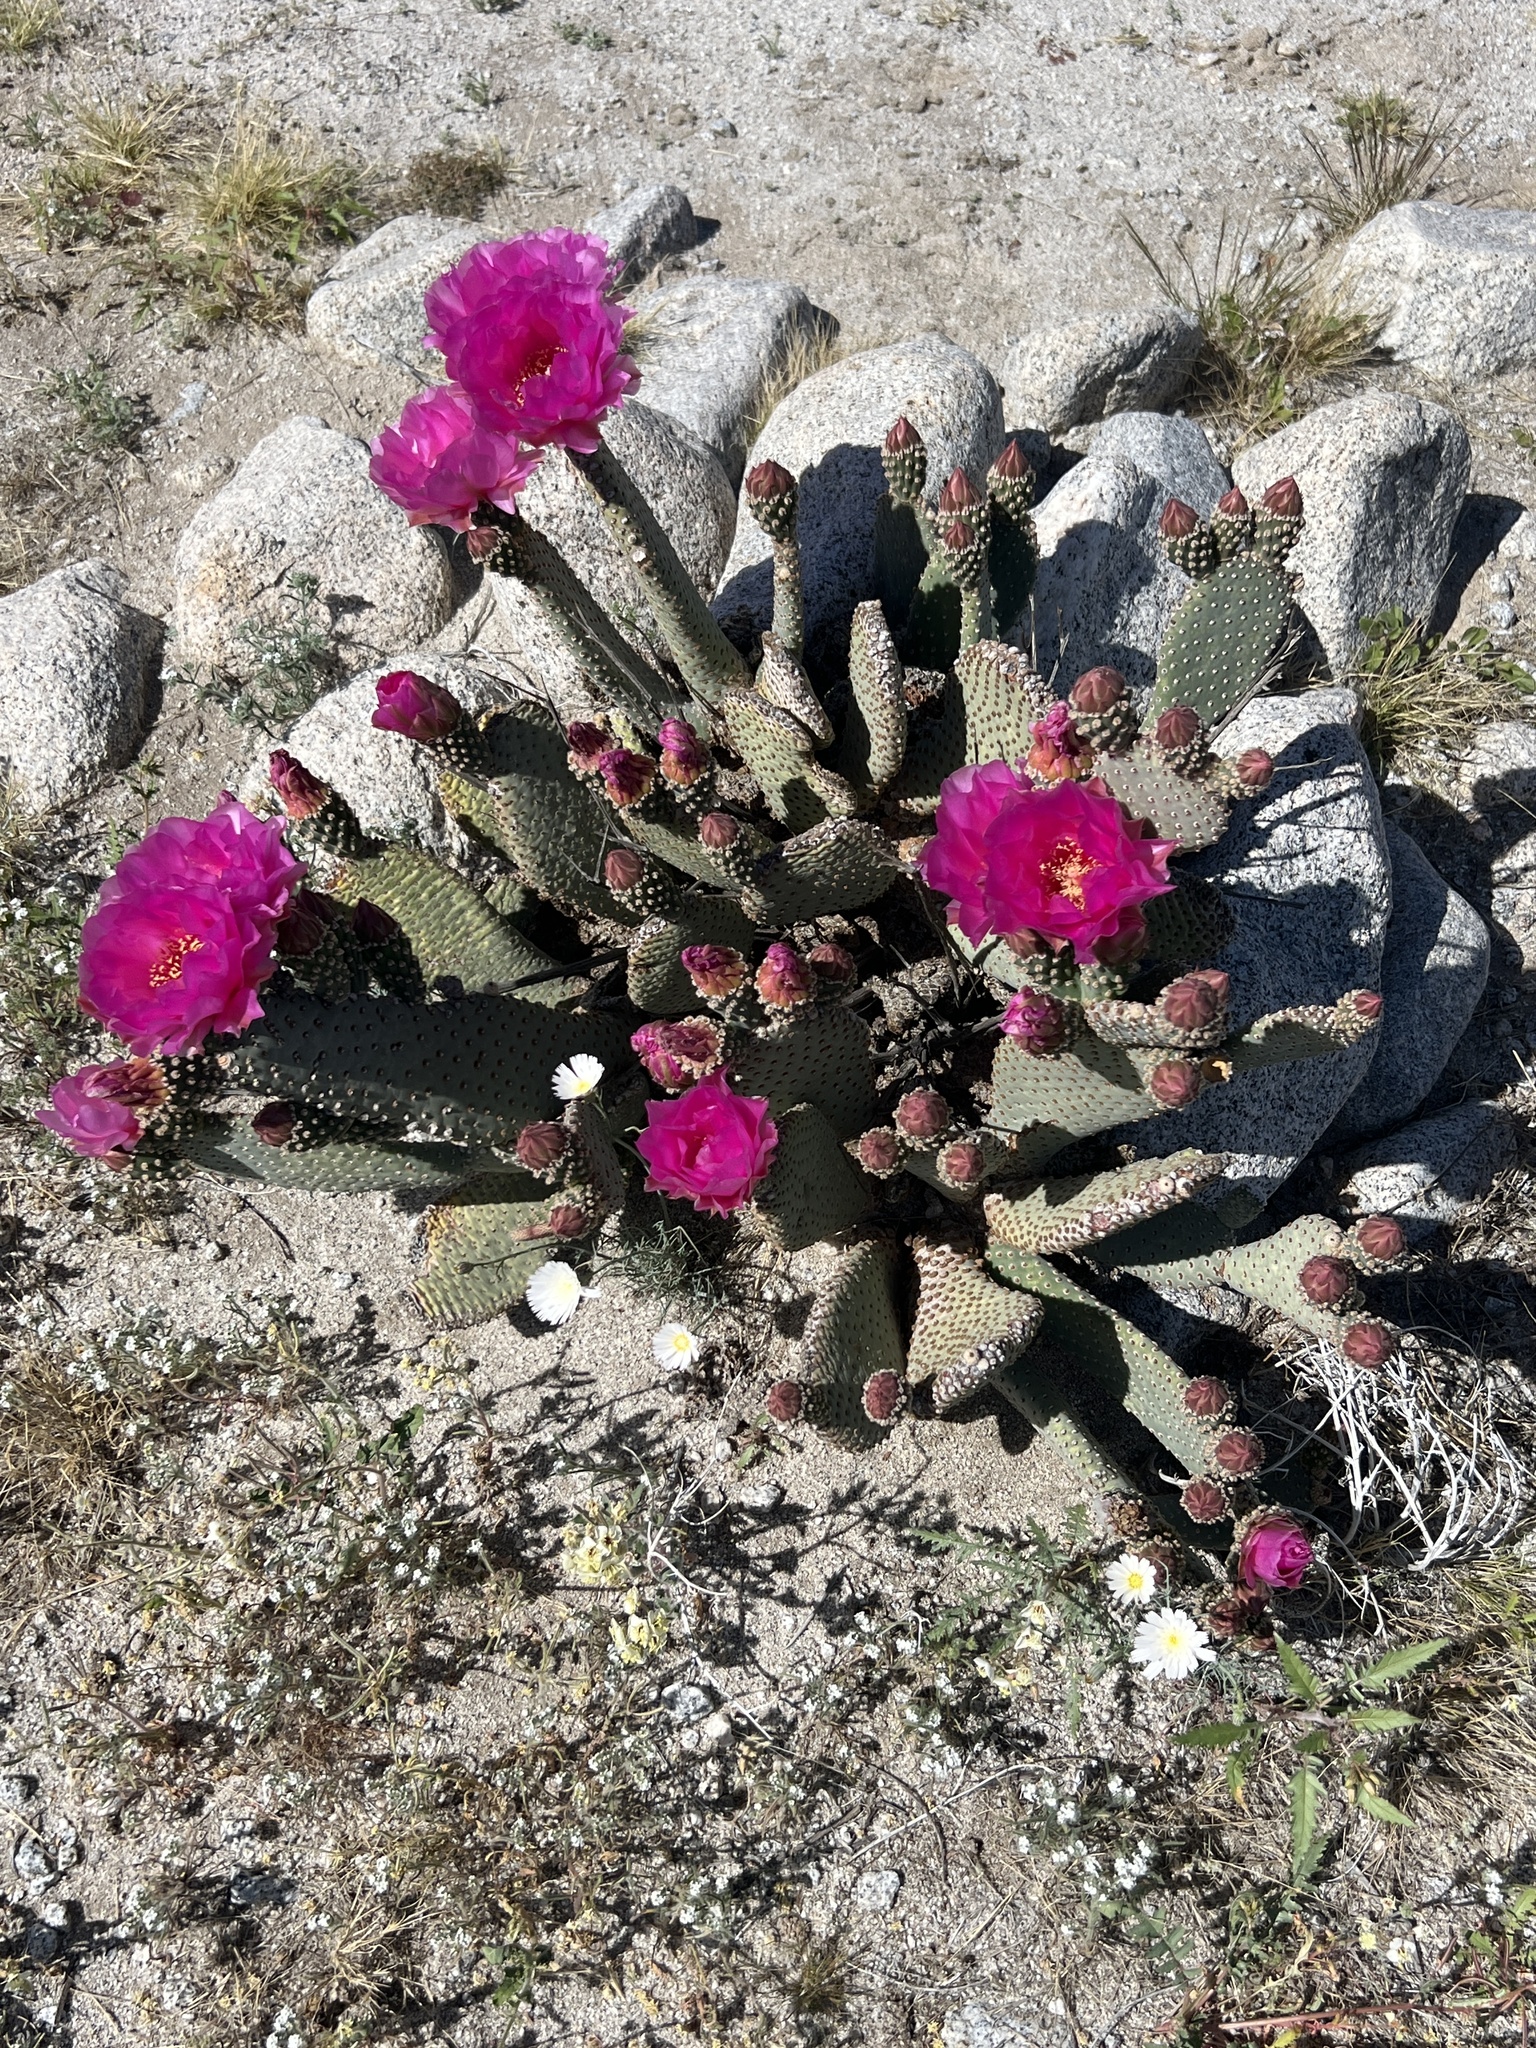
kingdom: Plantae
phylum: Tracheophyta
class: Magnoliopsida
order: Caryophyllales
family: Cactaceae
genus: Opuntia
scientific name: Opuntia basilaris
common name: Beavertail prickly-pear
